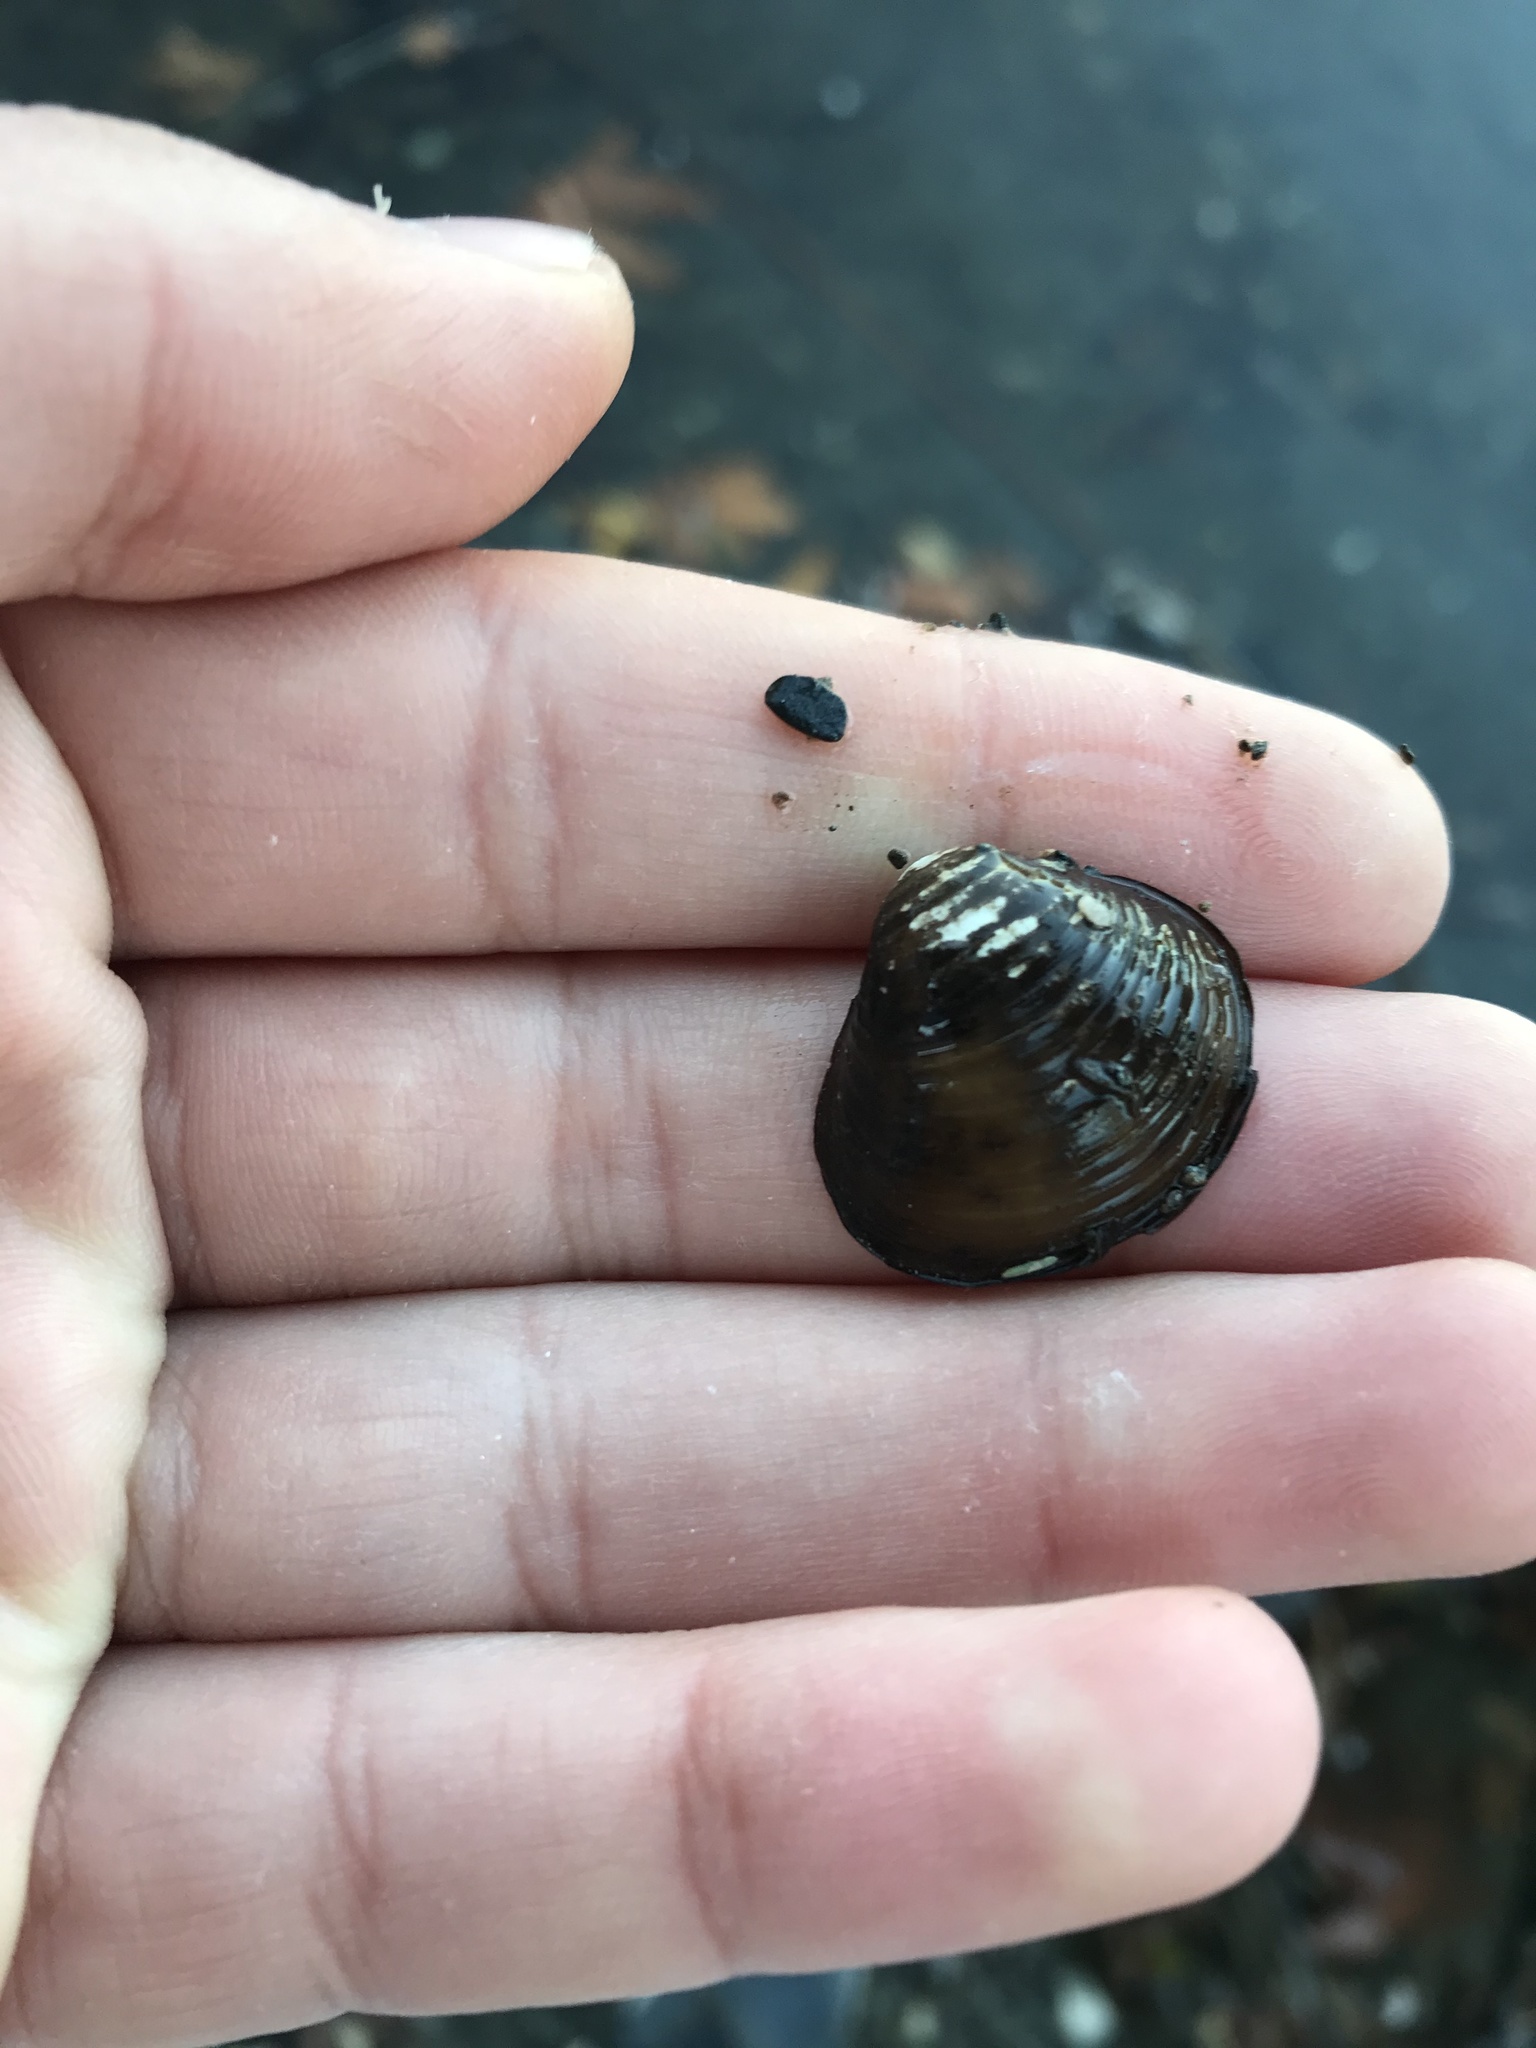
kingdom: Animalia
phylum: Mollusca
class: Bivalvia
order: Venerida
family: Cyrenidae
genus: Corbicula
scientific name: Corbicula fluminea
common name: Asian clam
